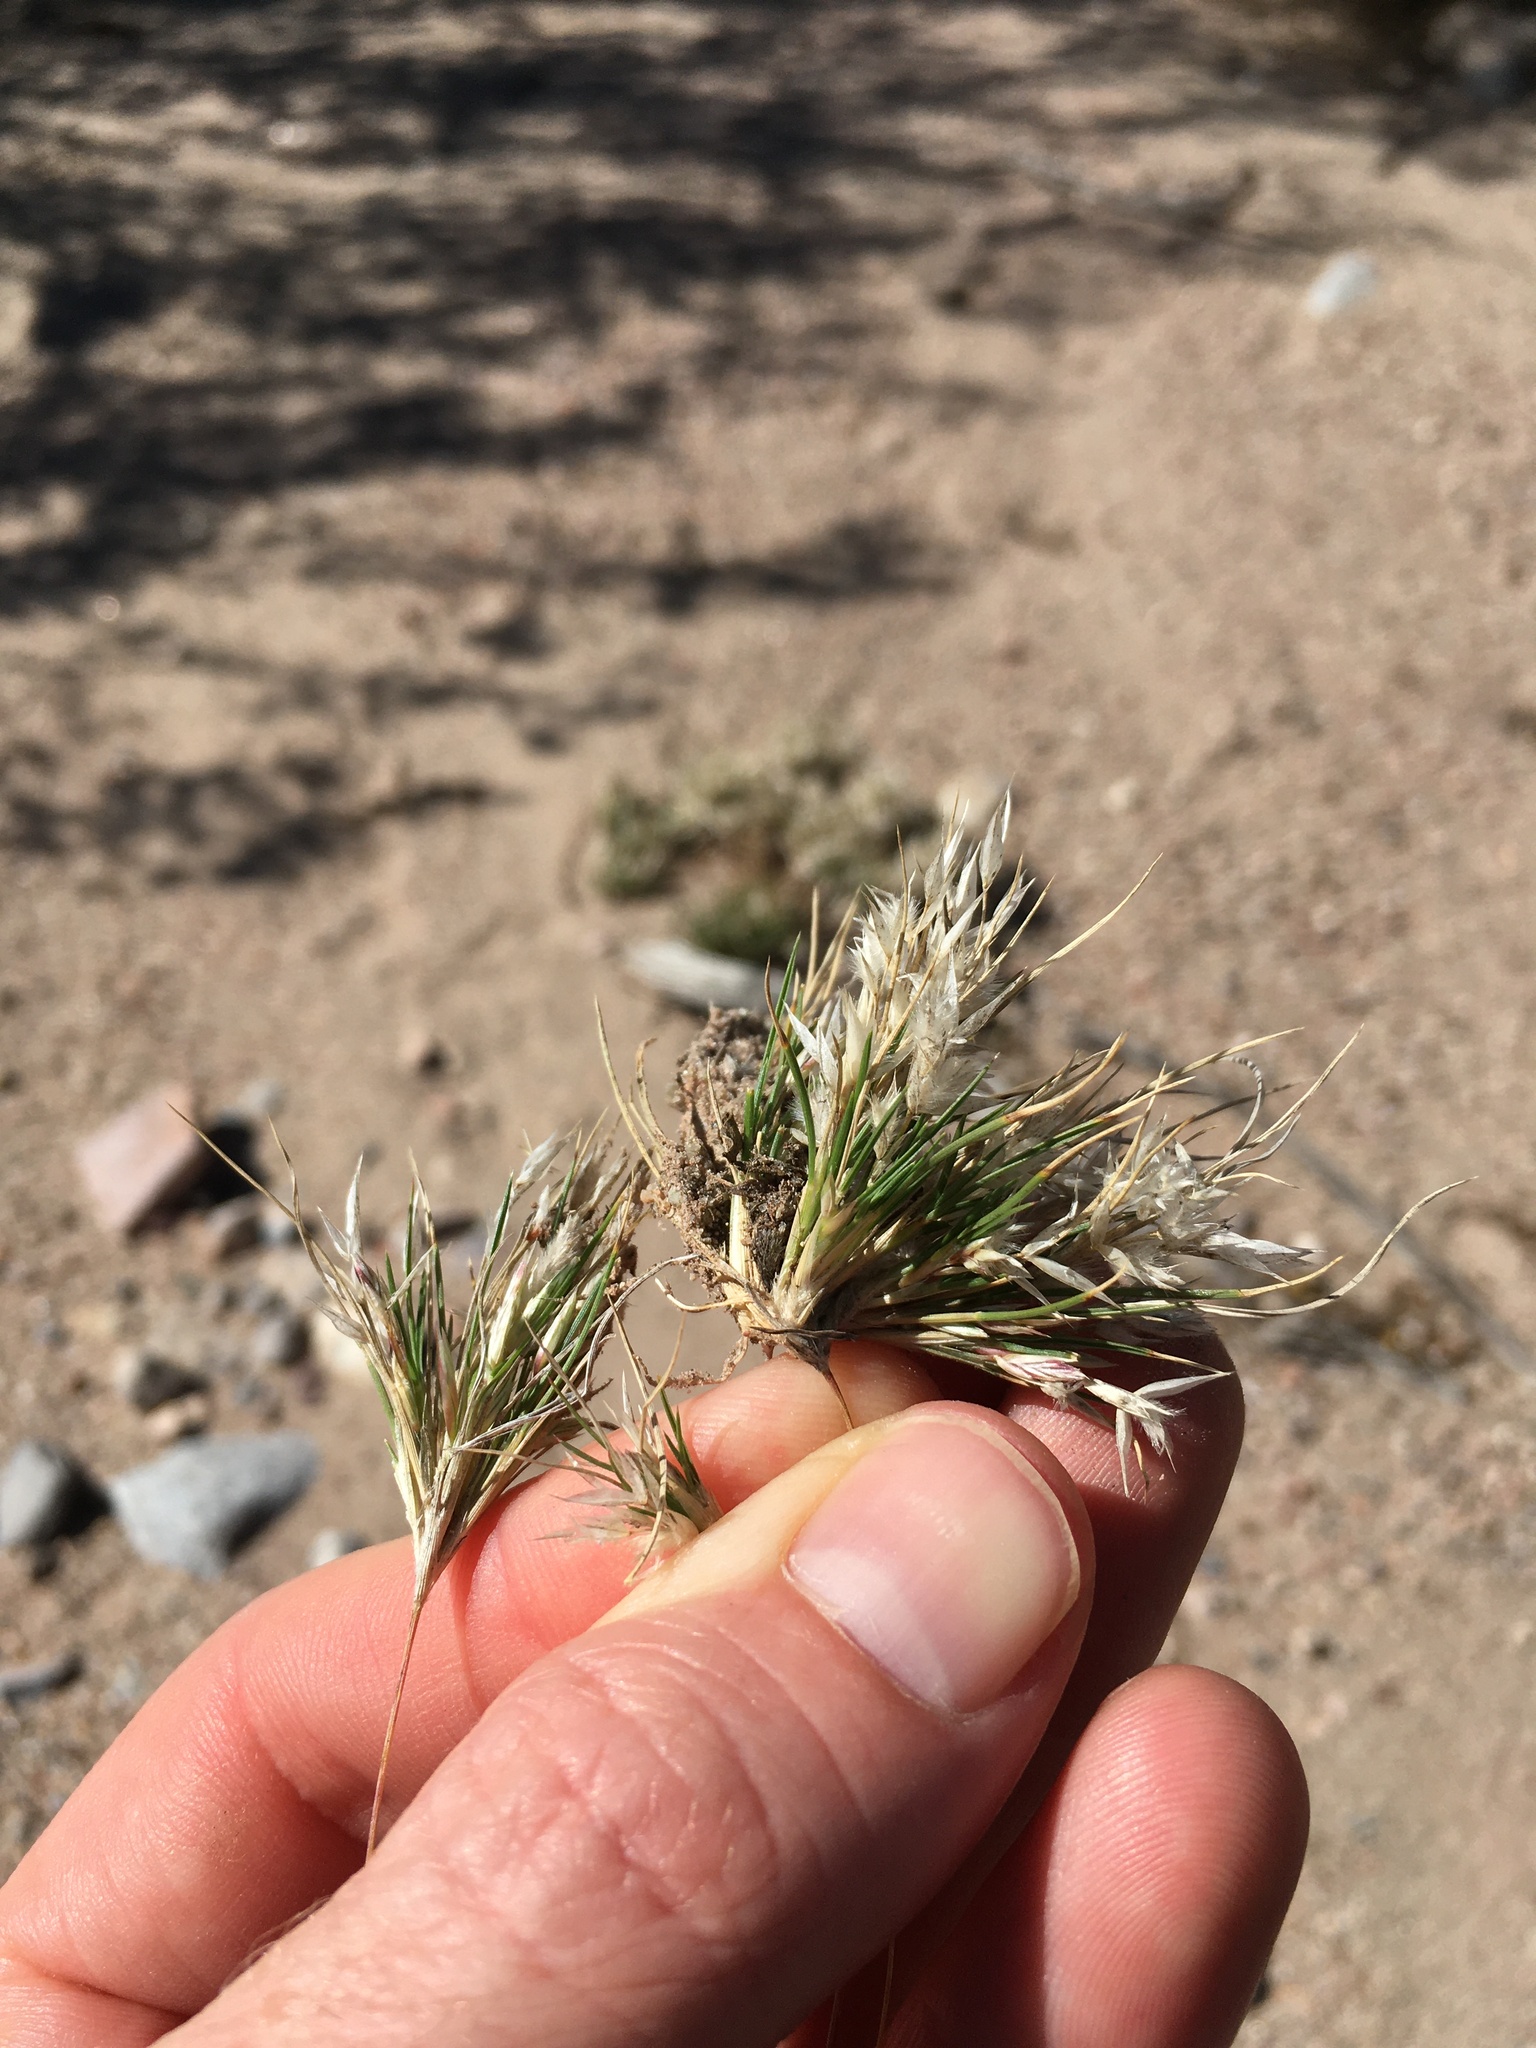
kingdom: Plantae
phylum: Tracheophyta
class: Liliopsida
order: Poales
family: Poaceae
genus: Dasyochloa
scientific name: Dasyochloa pulchella
